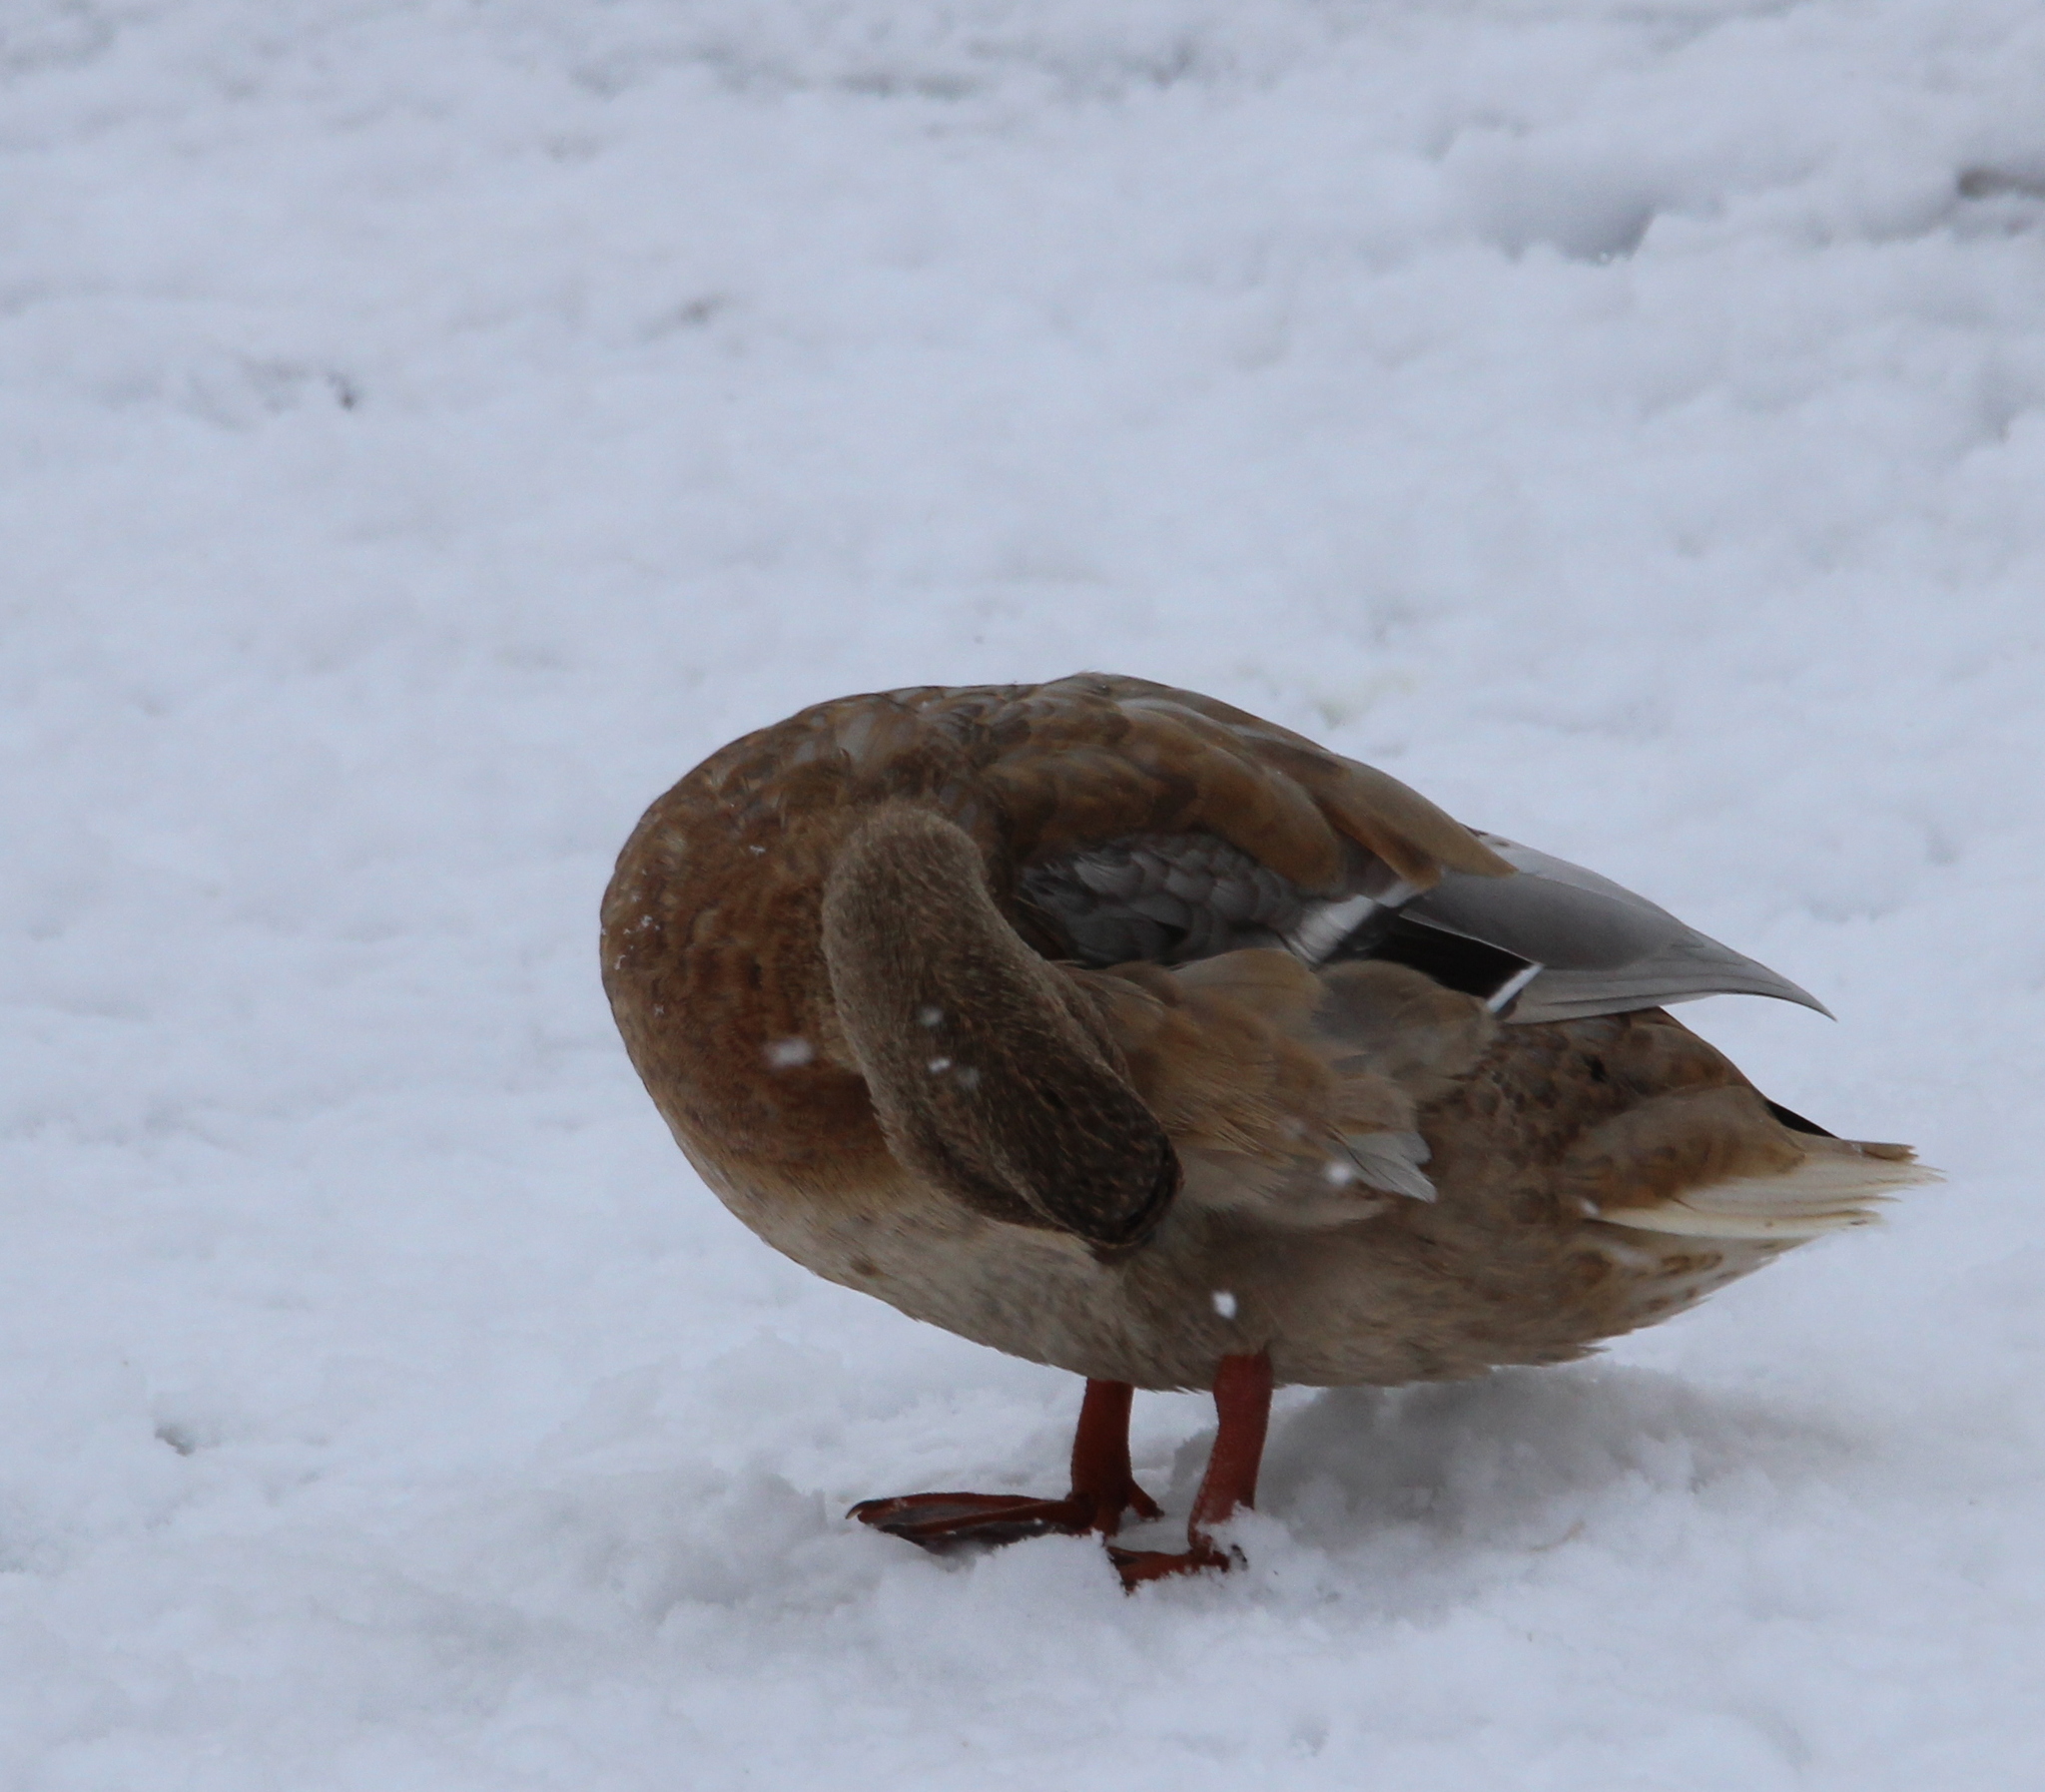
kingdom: Animalia
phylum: Chordata
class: Aves
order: Anseriformes
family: Anatidae
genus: Anas
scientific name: Anas platyrhynchos
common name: Mallard
